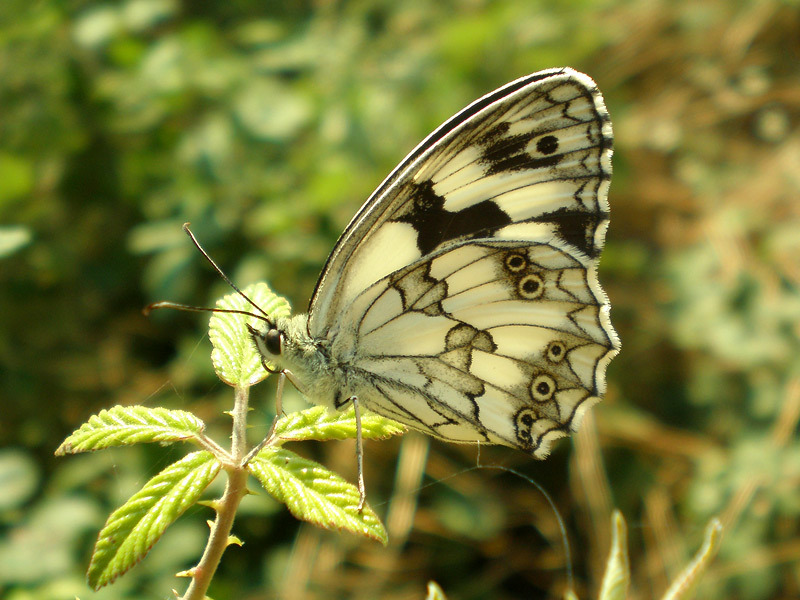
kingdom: Animalia
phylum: Arthropoda
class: Insecta
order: Lepidoptera
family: Nymphalidae
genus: Melanargia
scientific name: Melanargia lachesis
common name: Iberian marbled white
